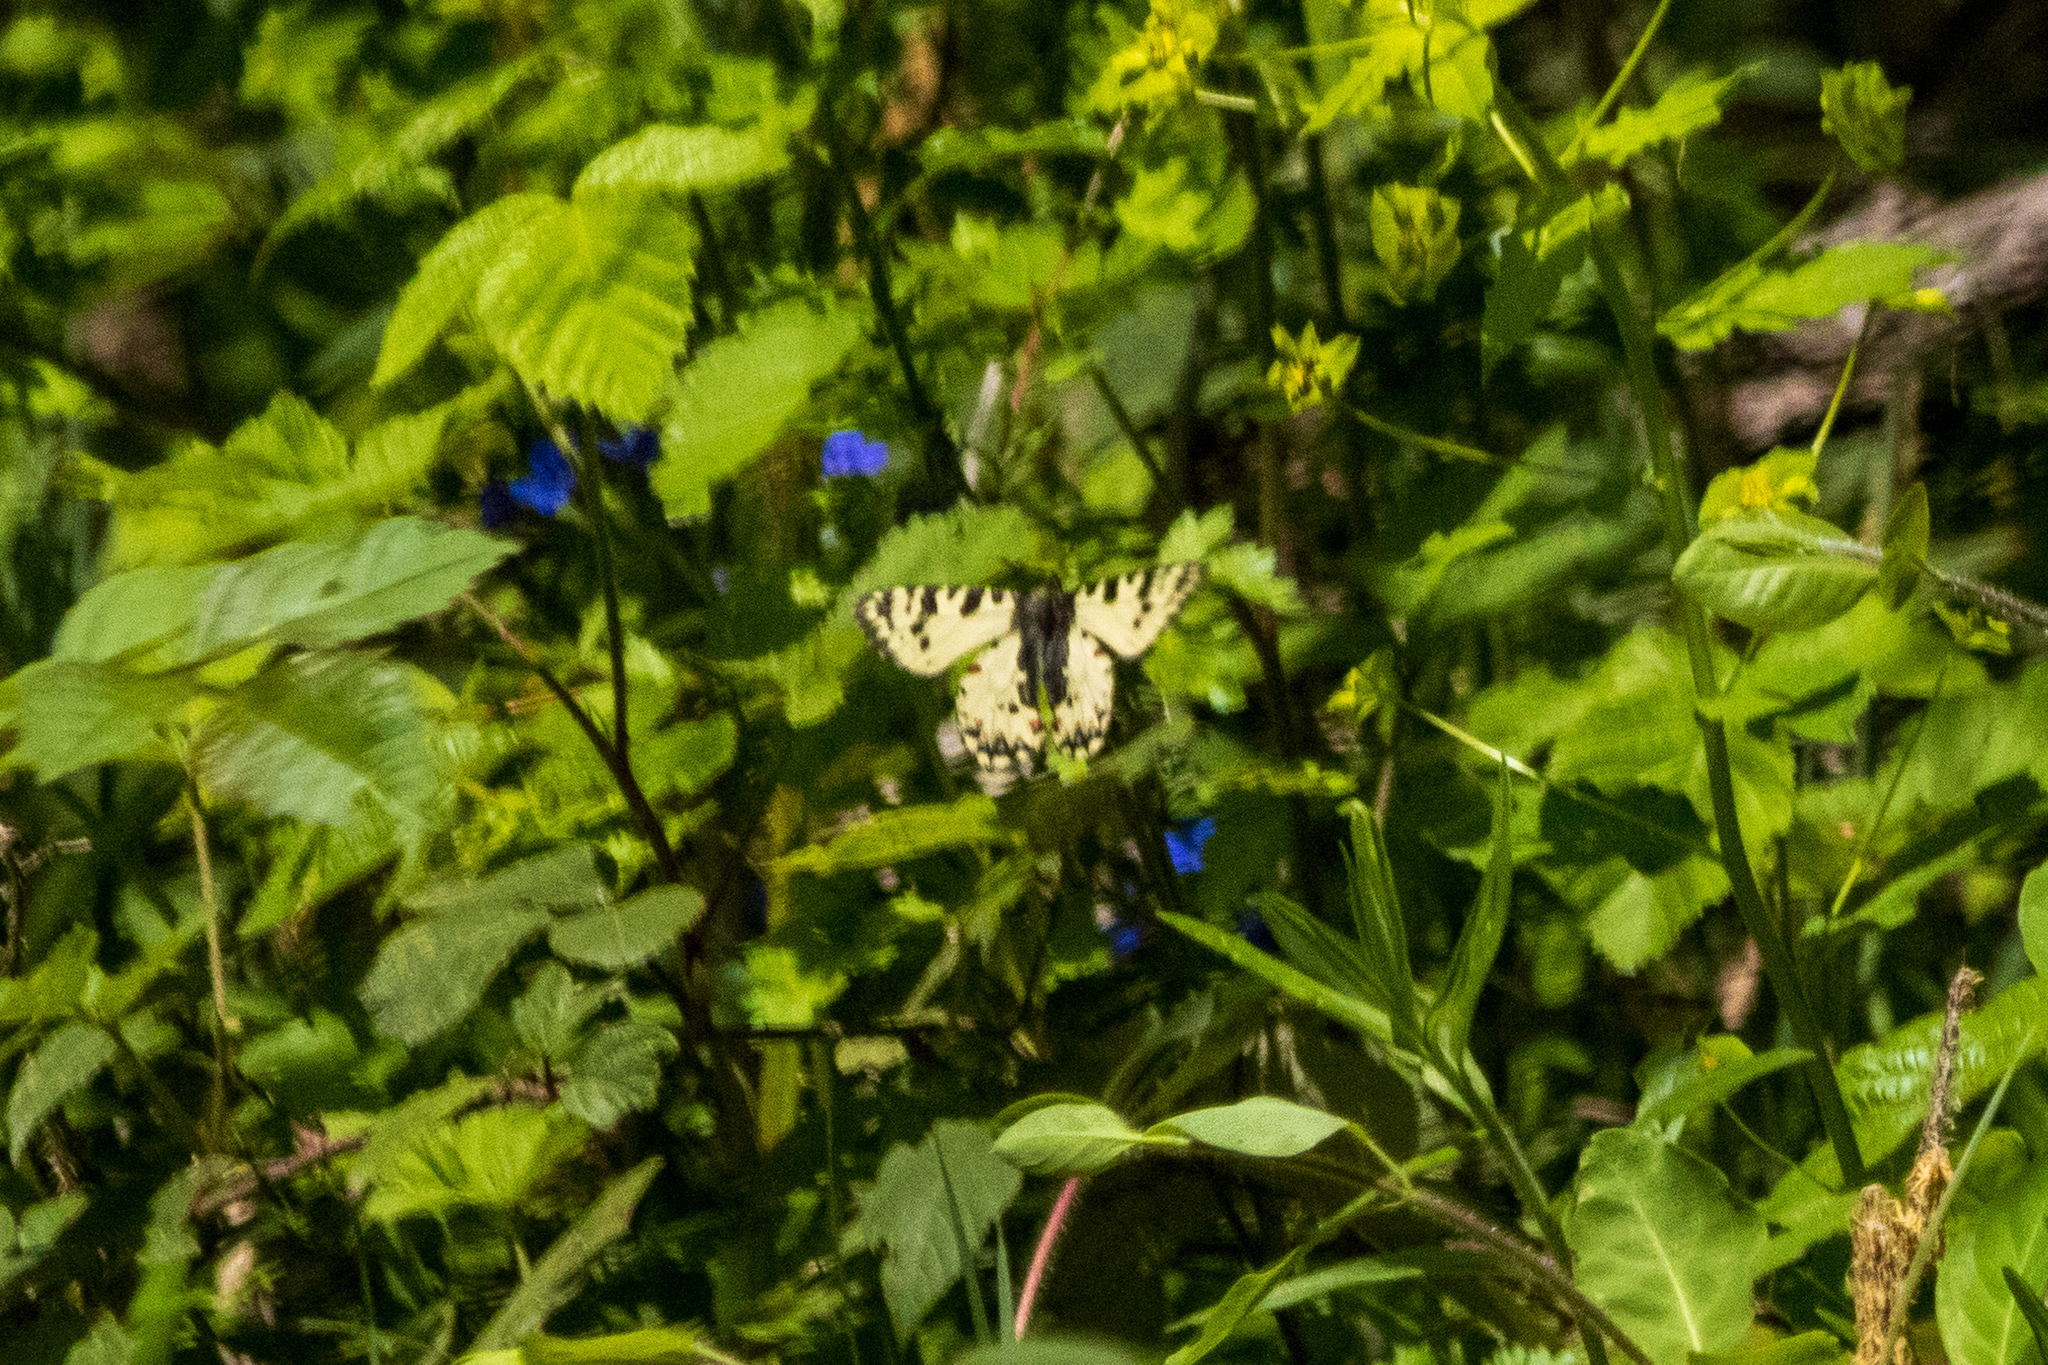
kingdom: Animalia
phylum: Arthropoda
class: Insecta
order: Lepidoptera
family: Papilionidae
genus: Zerynthia
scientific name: Zerynthia caucasica
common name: Caucasian festoon
